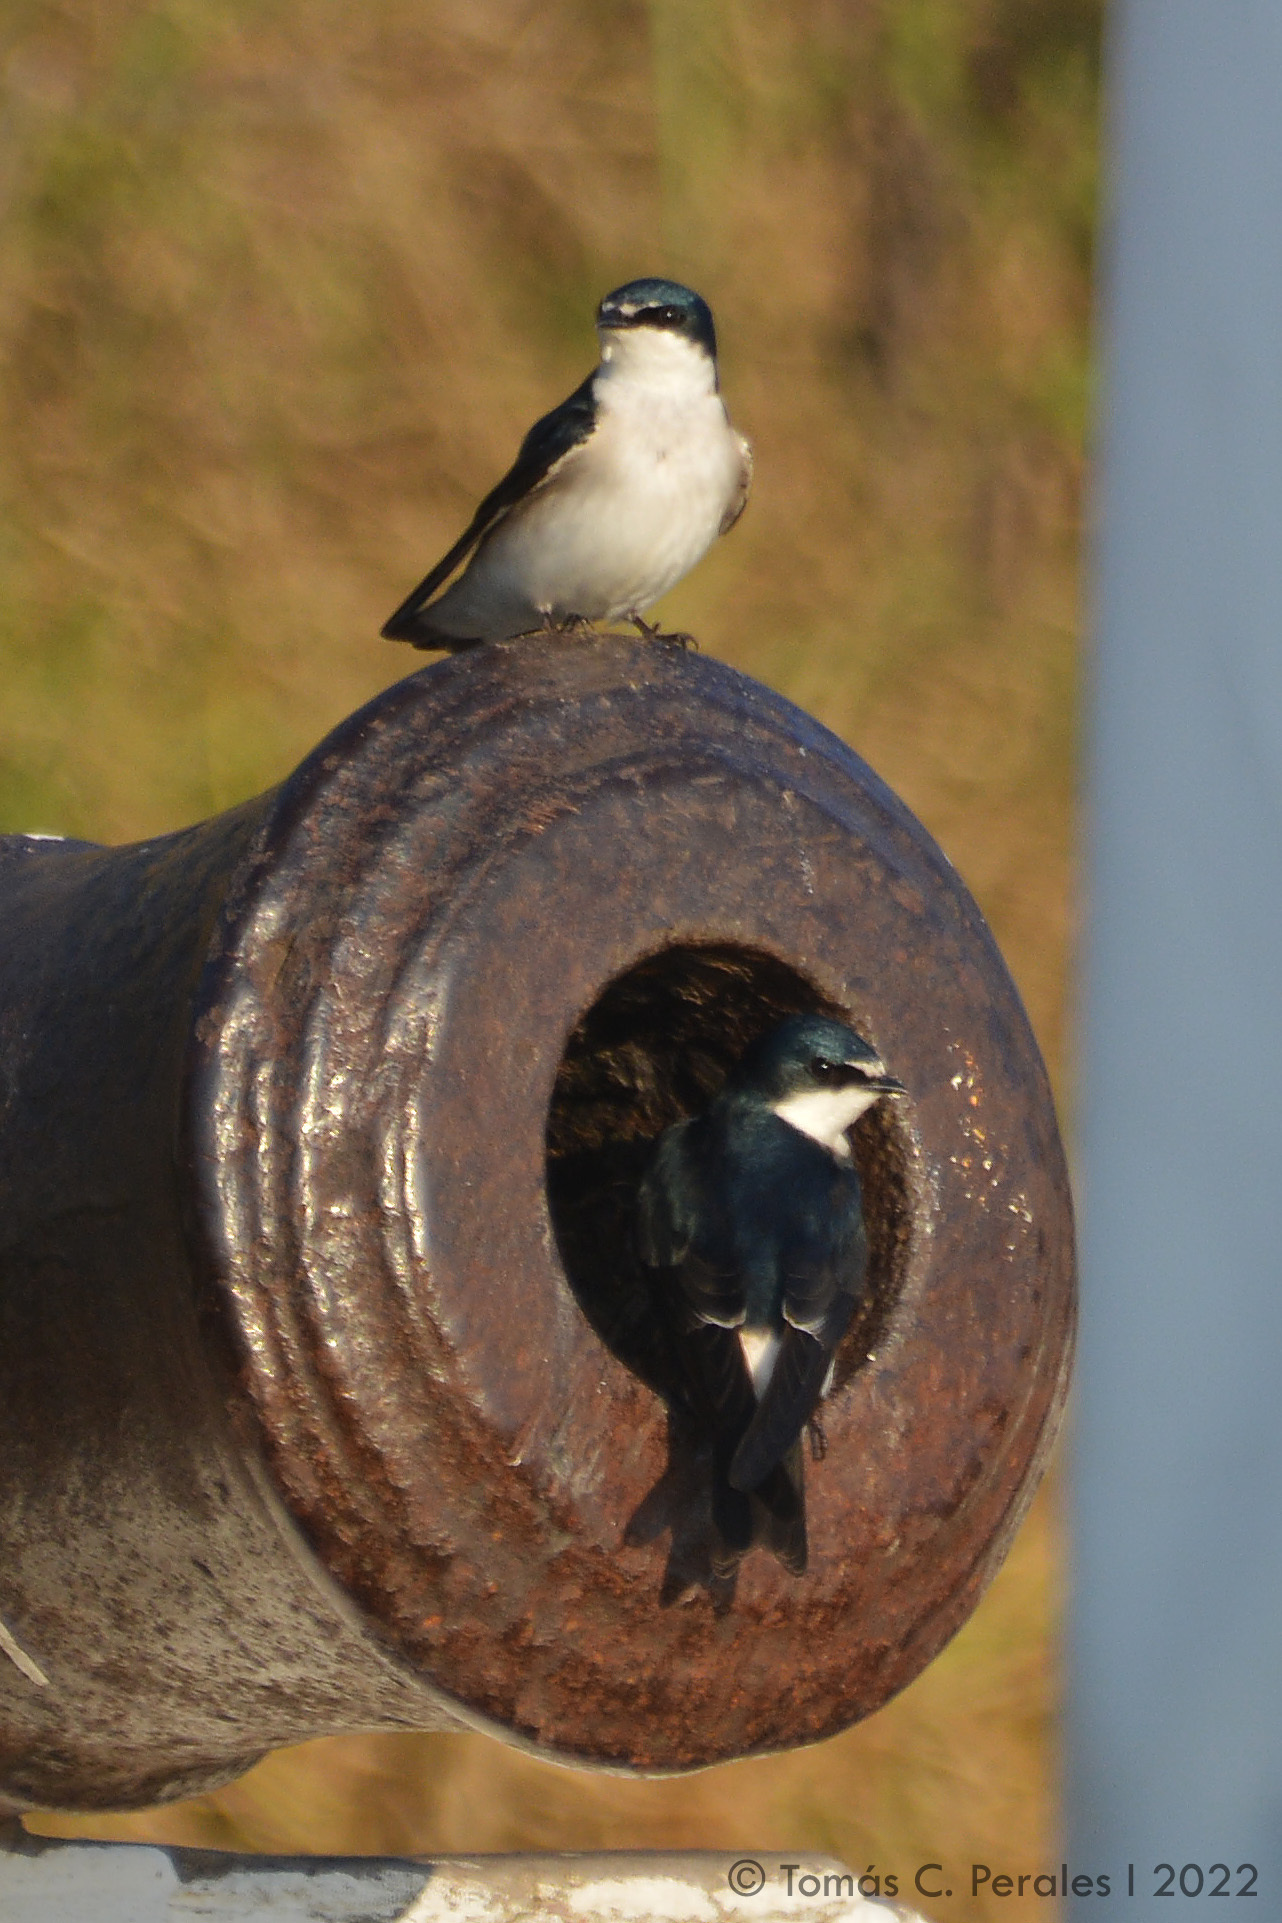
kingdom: Animalia
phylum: Chordata
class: Aves
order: Passeriformes
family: Hirundinidae
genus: Tachycineta
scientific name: Tachycineta leucorrhoa
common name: White-rumped swallow
